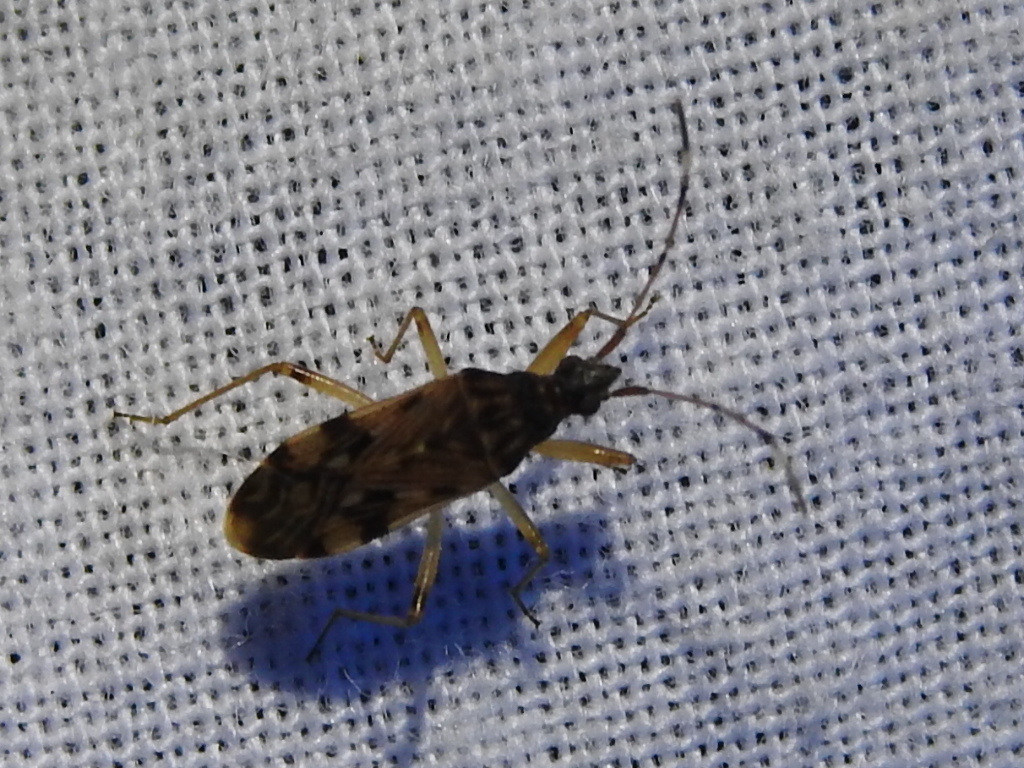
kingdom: Animalia
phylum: Arthropoda
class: Insecta
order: Hemiptera
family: Rhyparochromidae
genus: Ozophora
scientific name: Ozophora picturata
